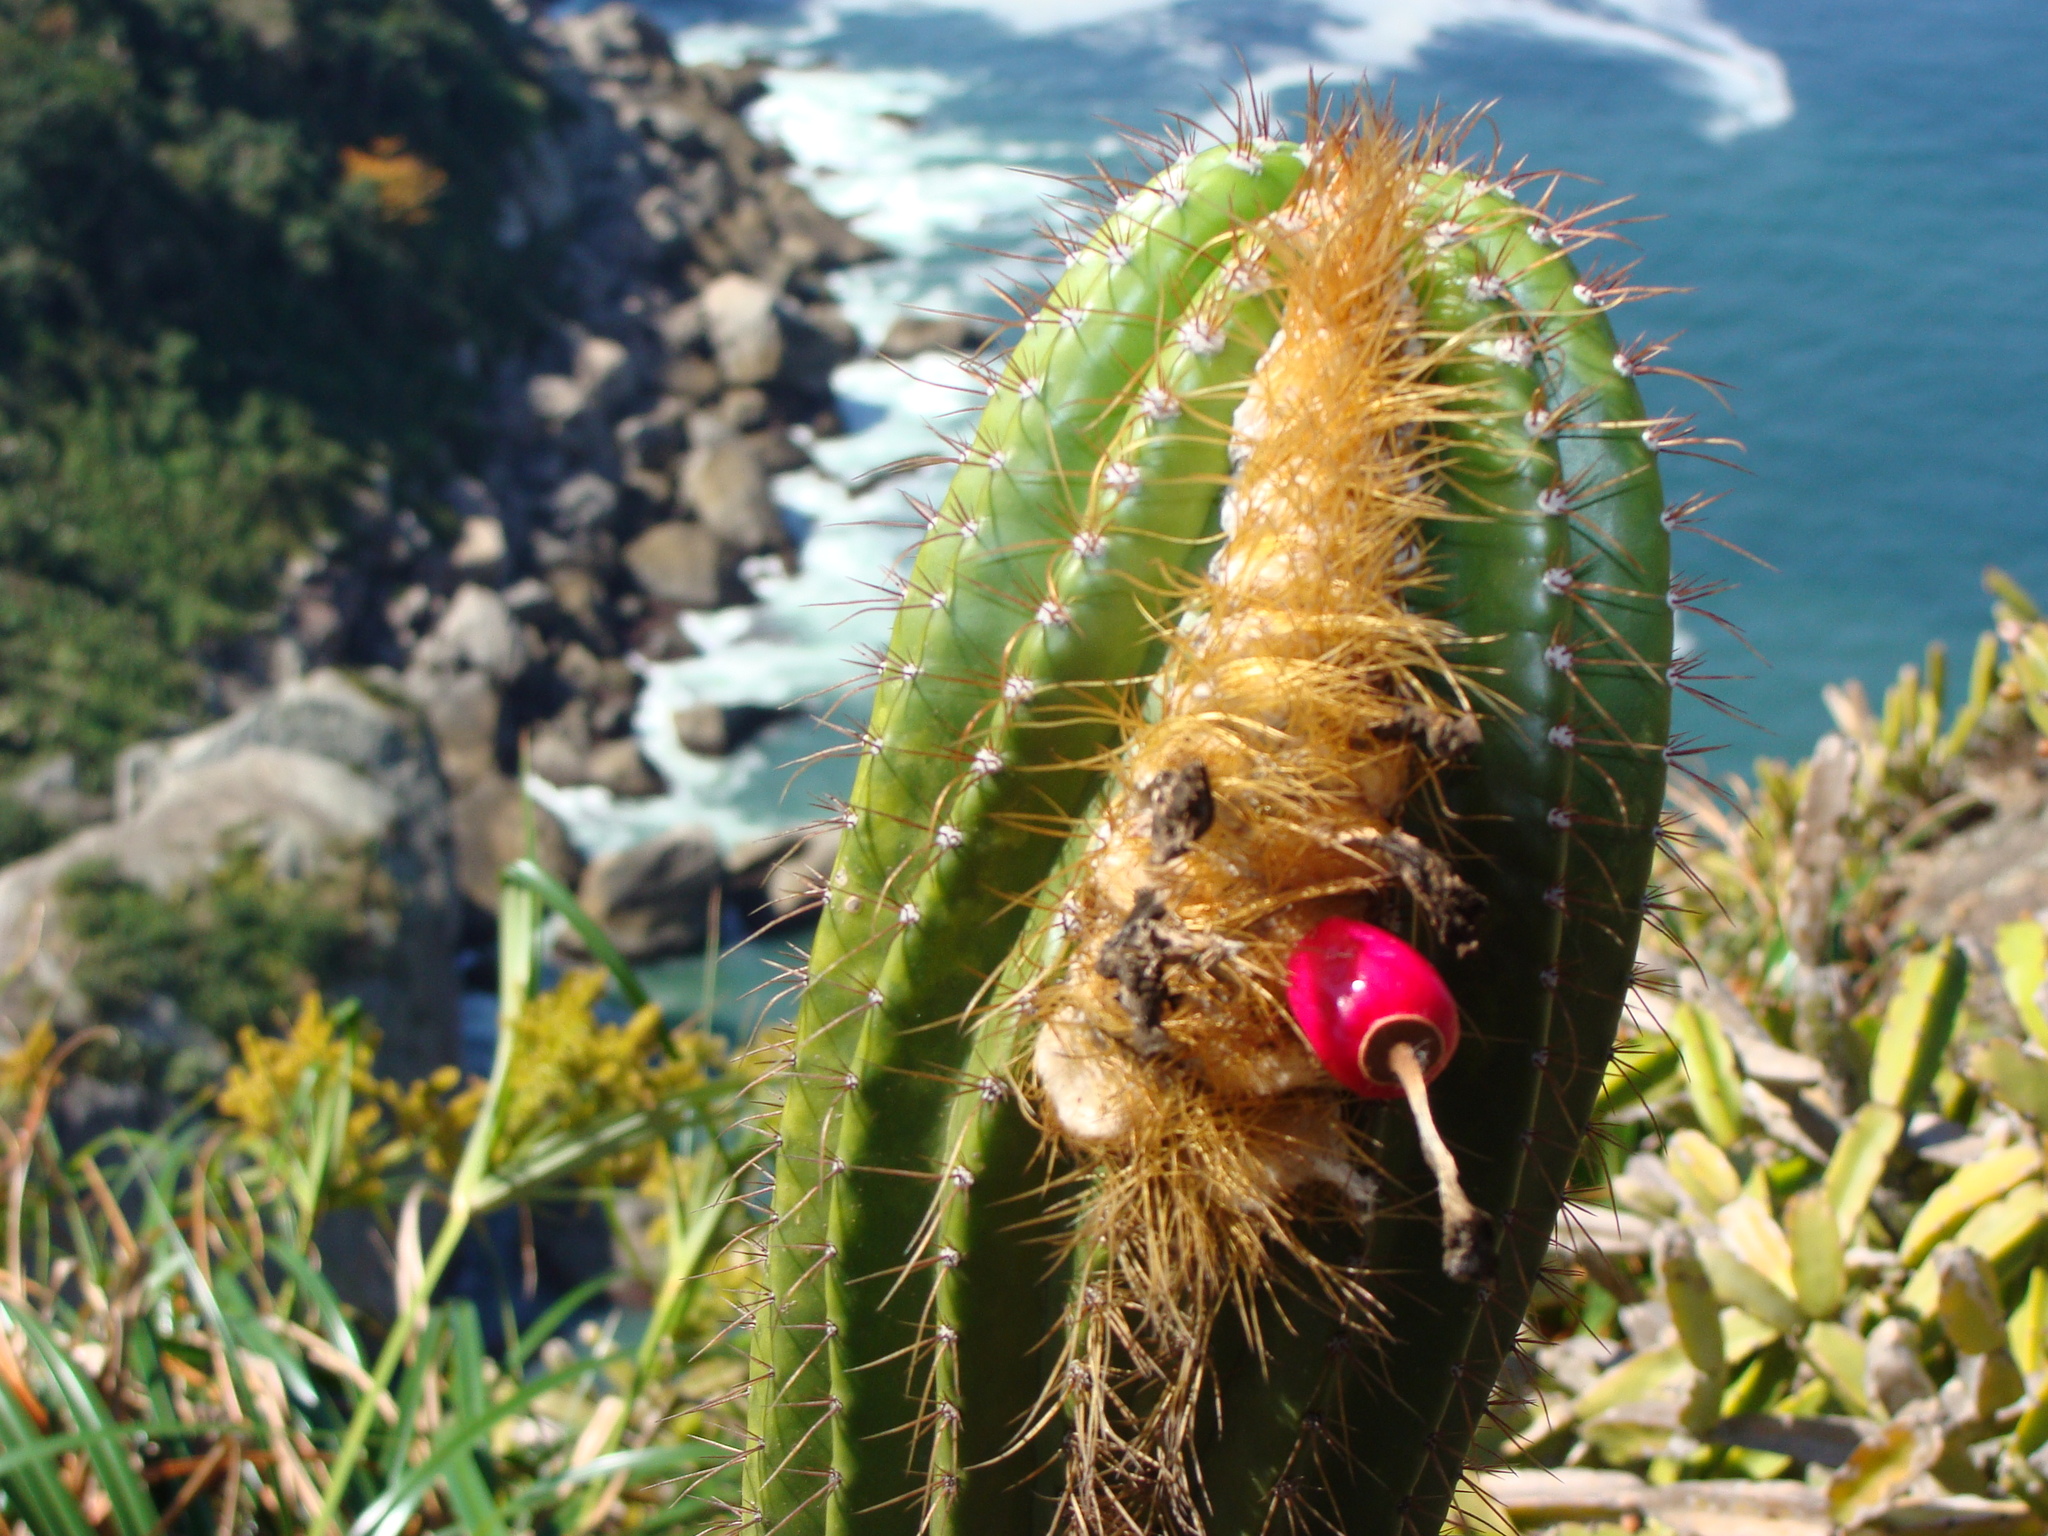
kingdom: Plantae
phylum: Tracheophyta
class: Magnoliopsida
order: Caryophyllales
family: Cactaceae
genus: Coleocephalocereus
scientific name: Coleocephalocereus fluminensis
